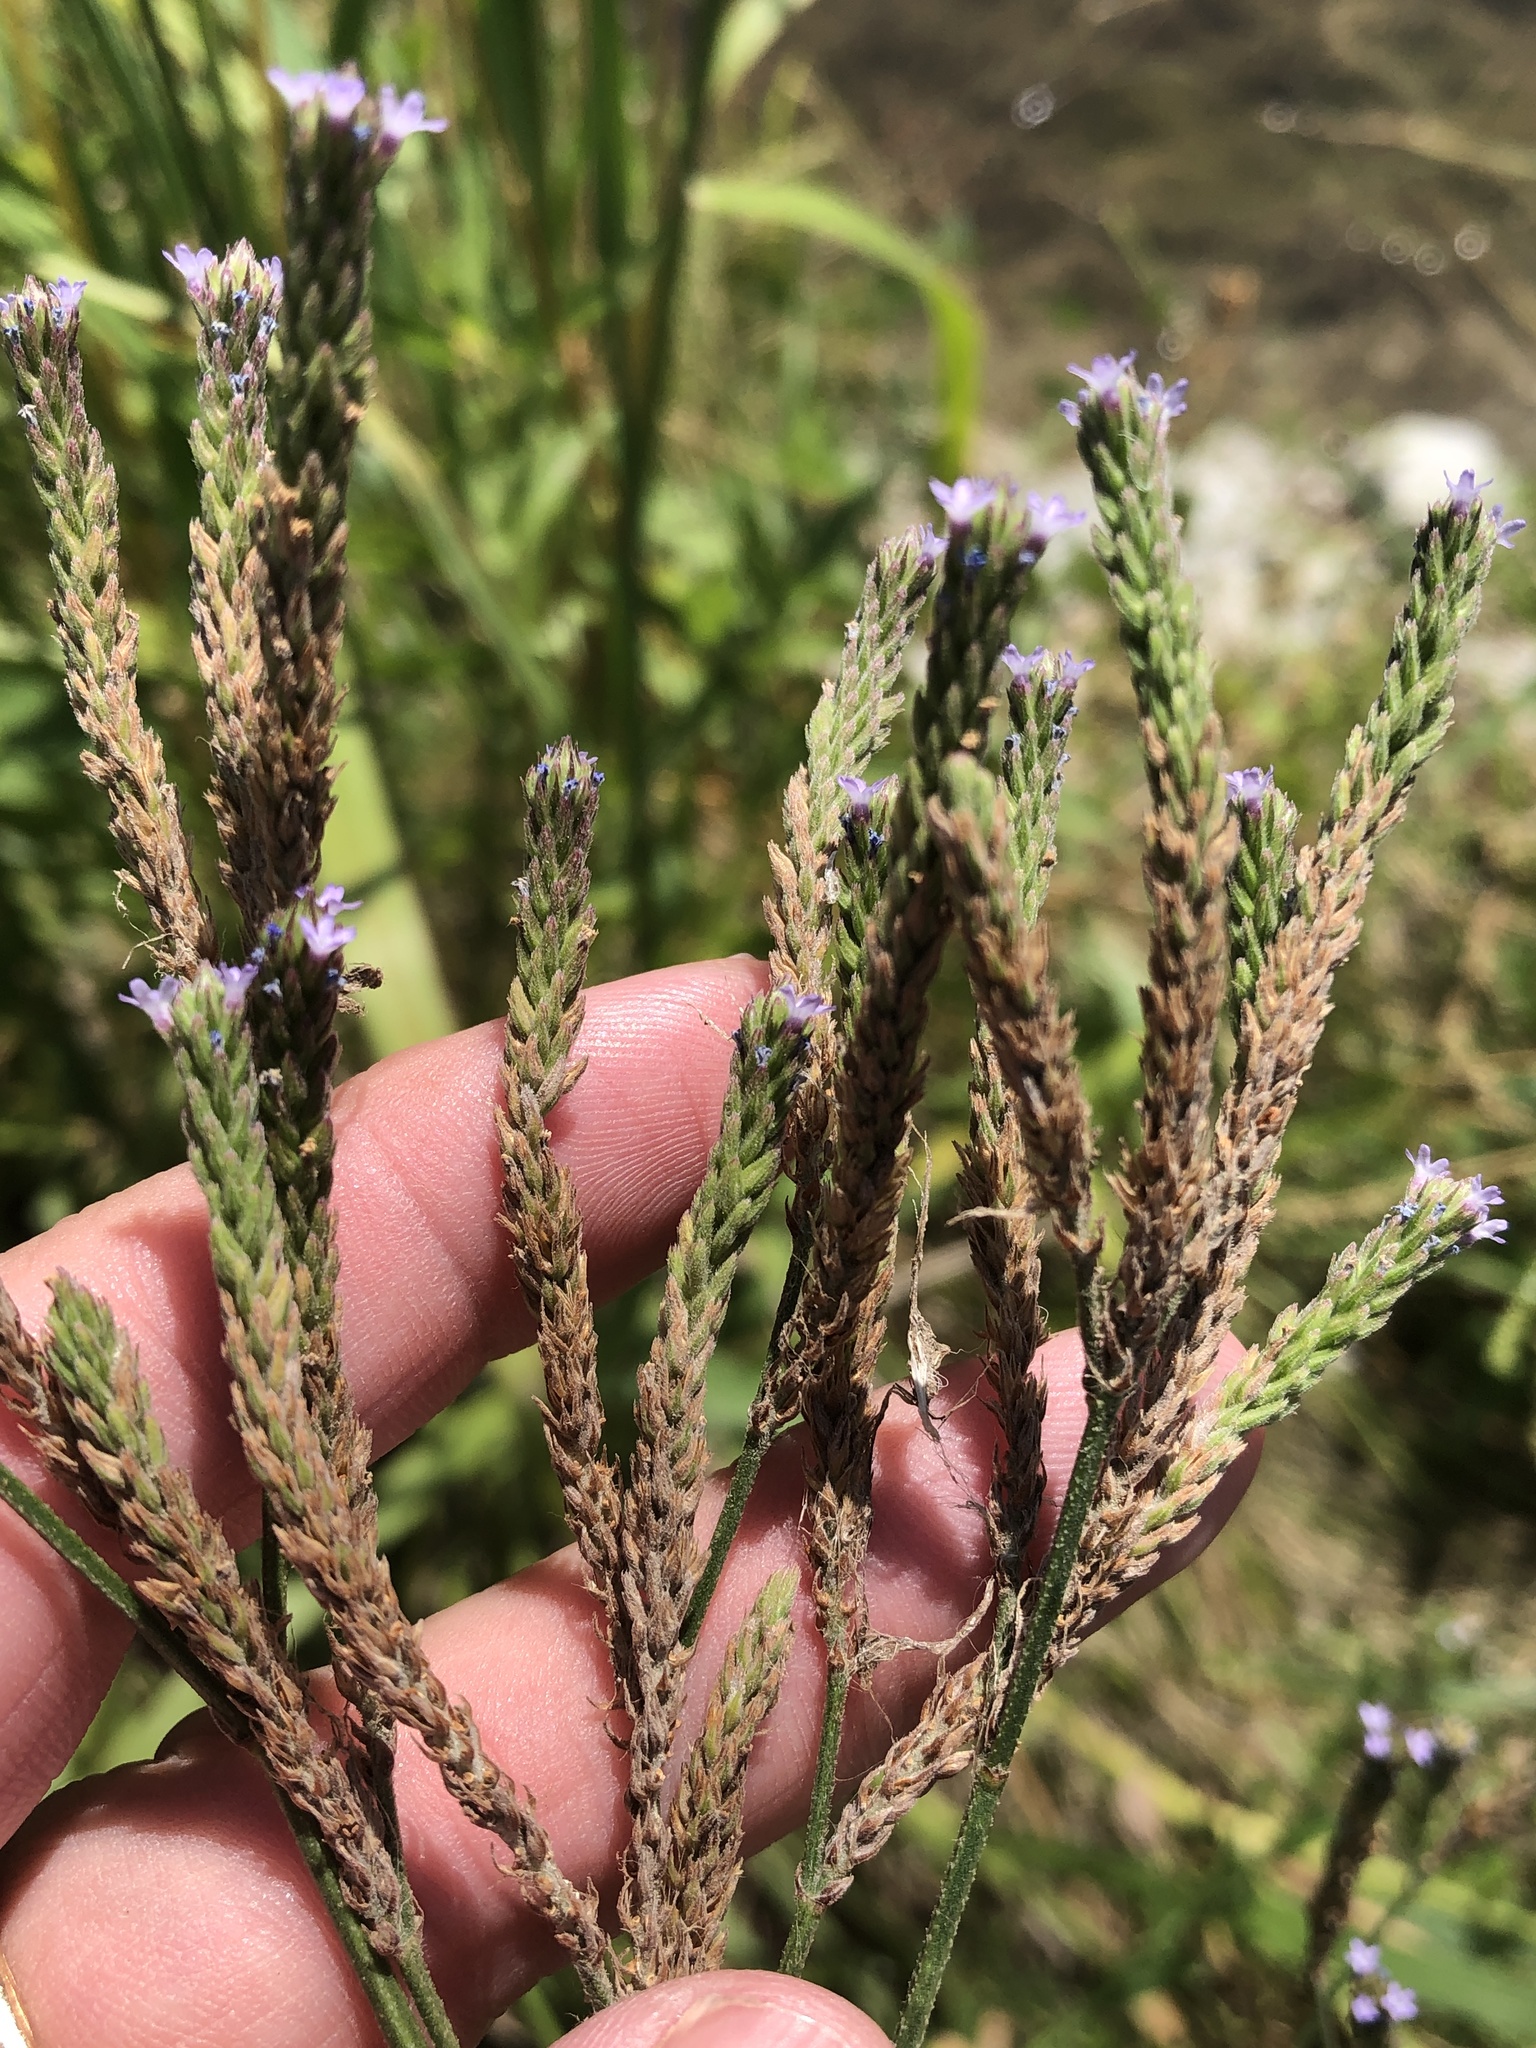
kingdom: Plantae
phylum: Tracheophyta
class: Magnoliopsida
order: Lamiales
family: Verbenaceae
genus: Verbena
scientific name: Verbena brasiliensis
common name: Brazilian vervain
